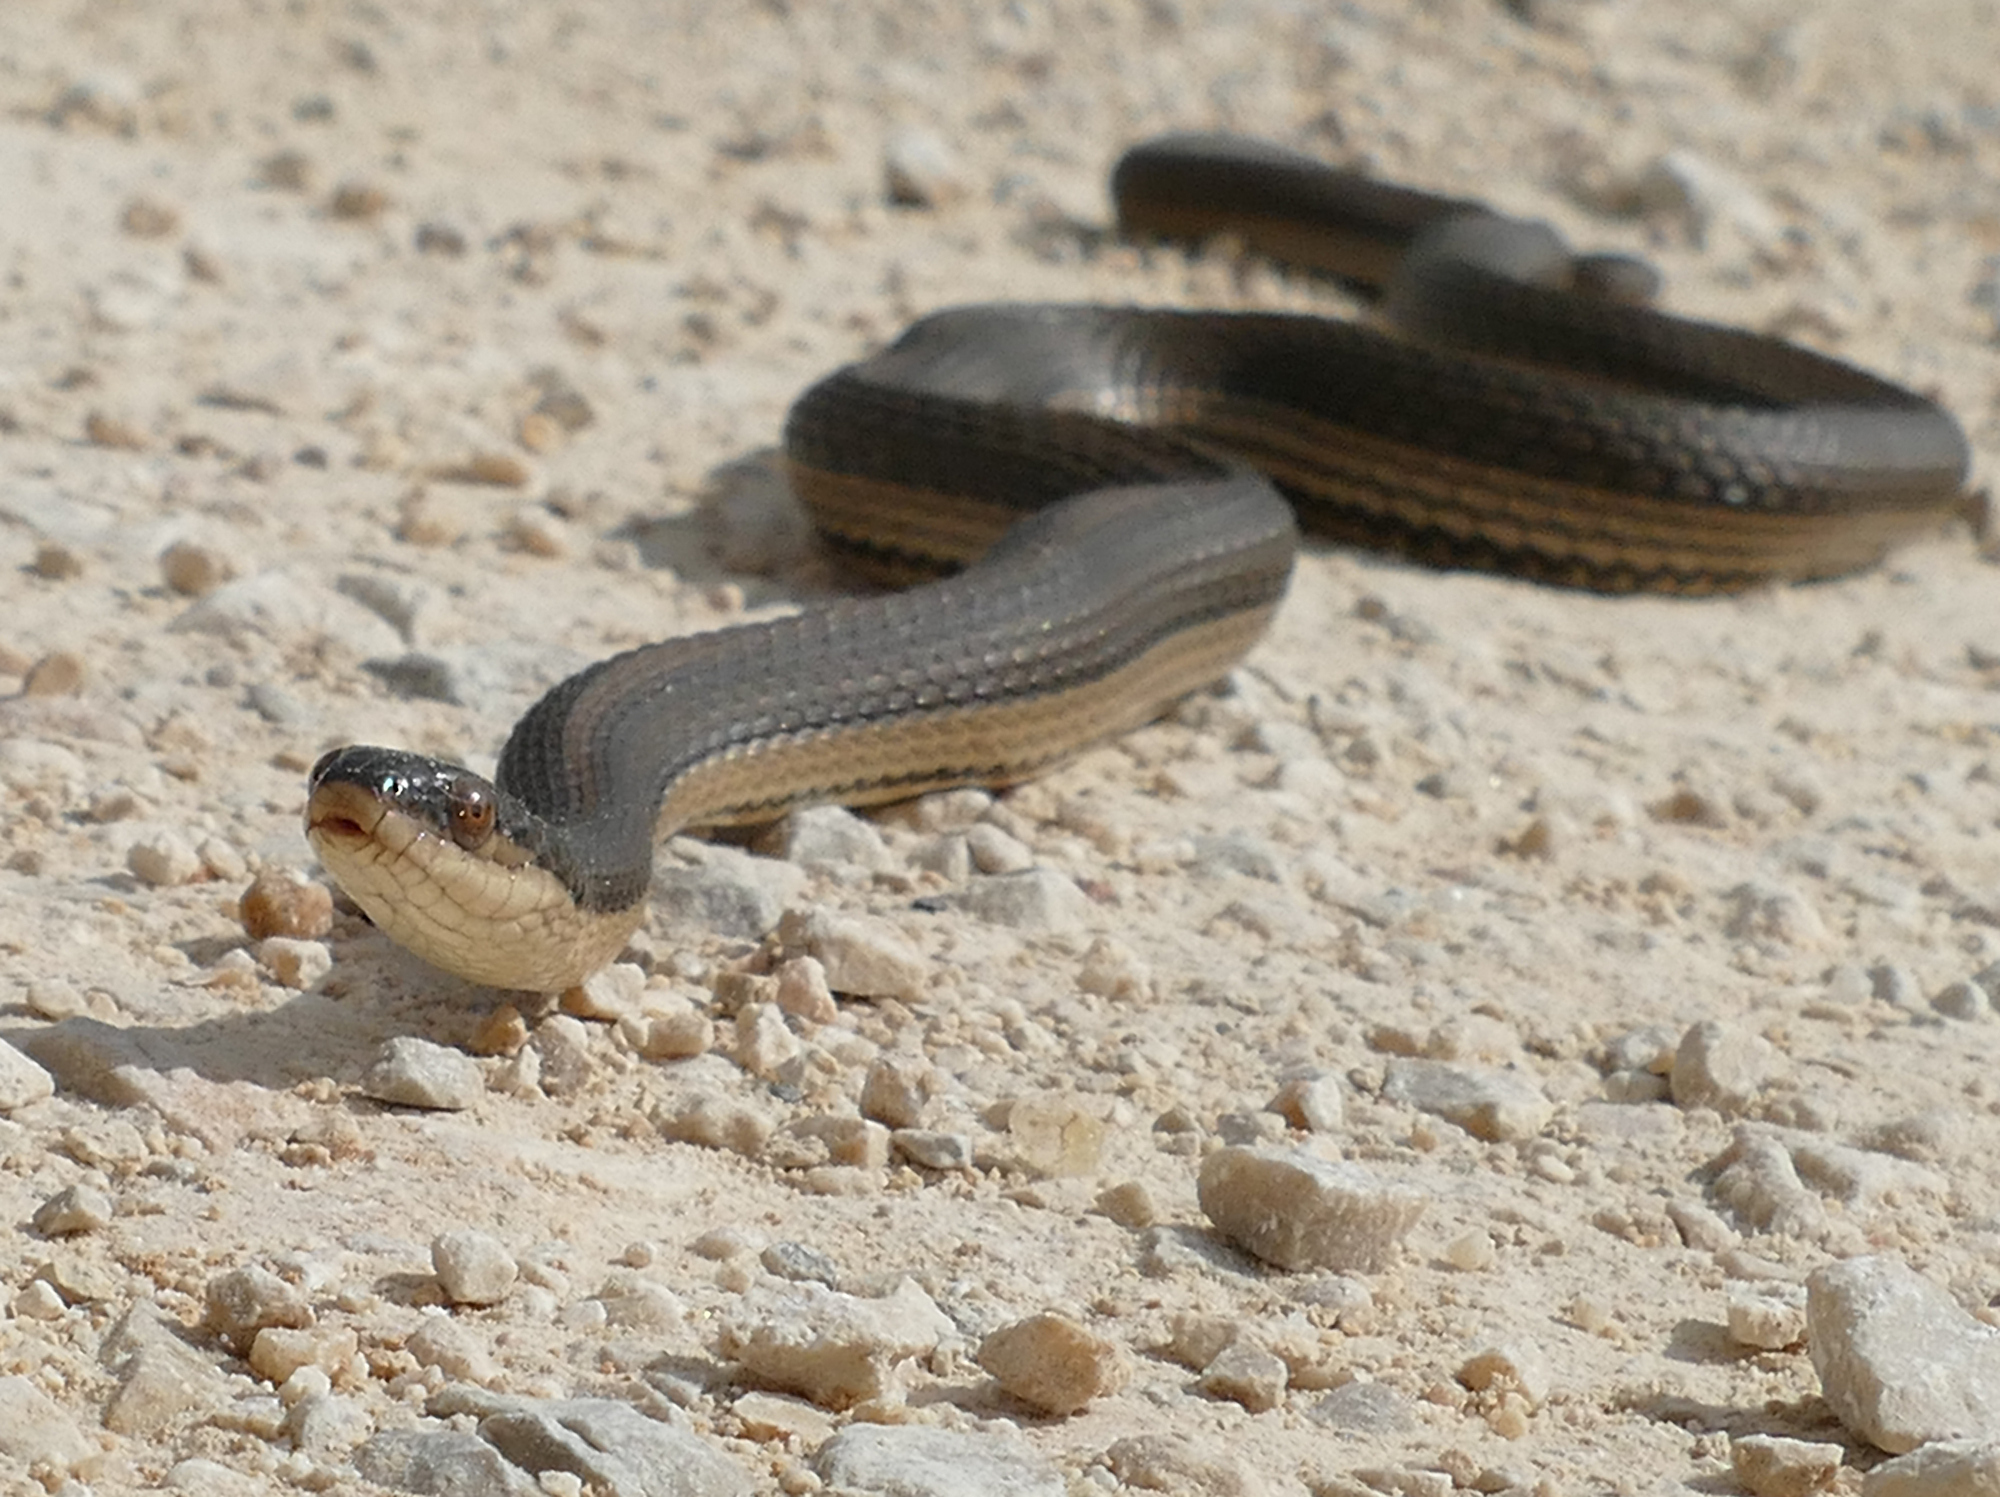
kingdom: Animalia
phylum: Chordata
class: Squamata
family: Colubridae
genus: Regina
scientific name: Regina grahamii
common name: Graham's crayfish snake
